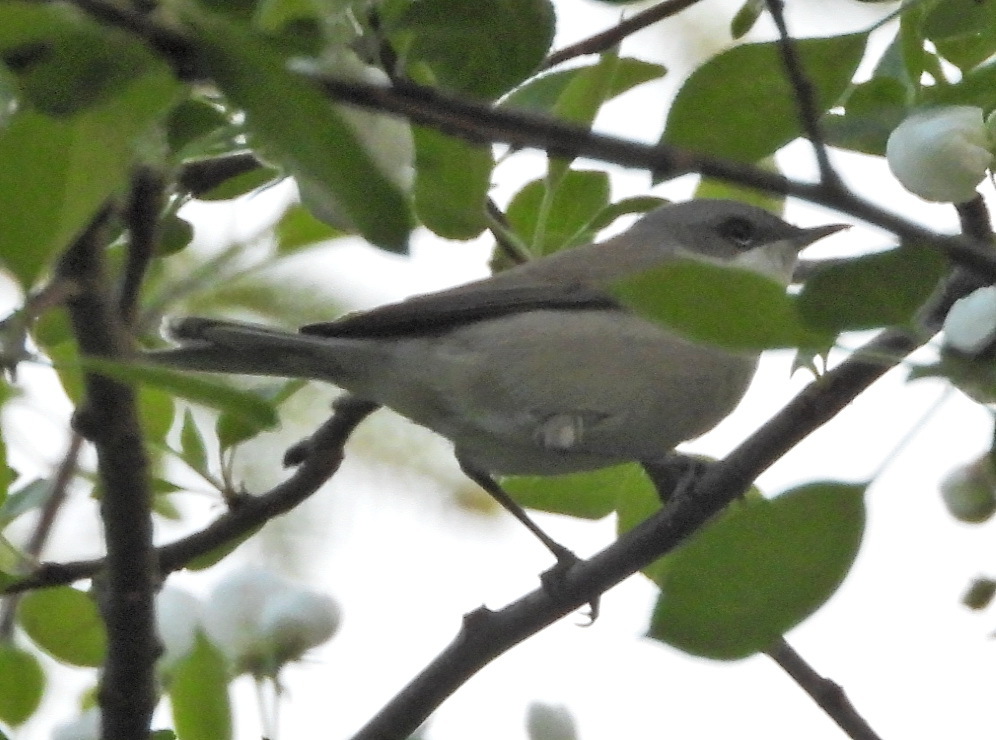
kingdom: Animalia
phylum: Chordata
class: Aves
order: Passeriformes
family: Sylviidae
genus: Sylvia
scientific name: Sylvia curruca
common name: Lesser whitethroat
